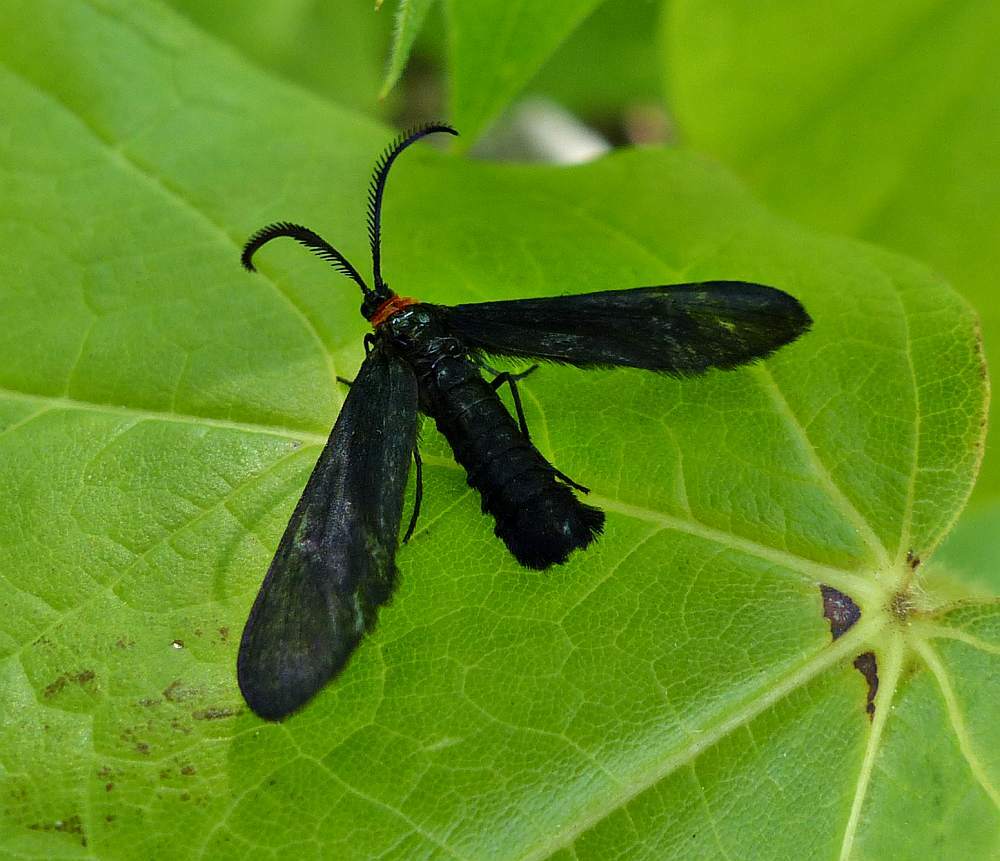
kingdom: Animalia
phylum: Arthropoda
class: Insecta
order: Lepidoptera
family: Zygaenidae
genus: Harrisina
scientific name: Harrisina americana
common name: Grapeleaf skeletonizer moth
